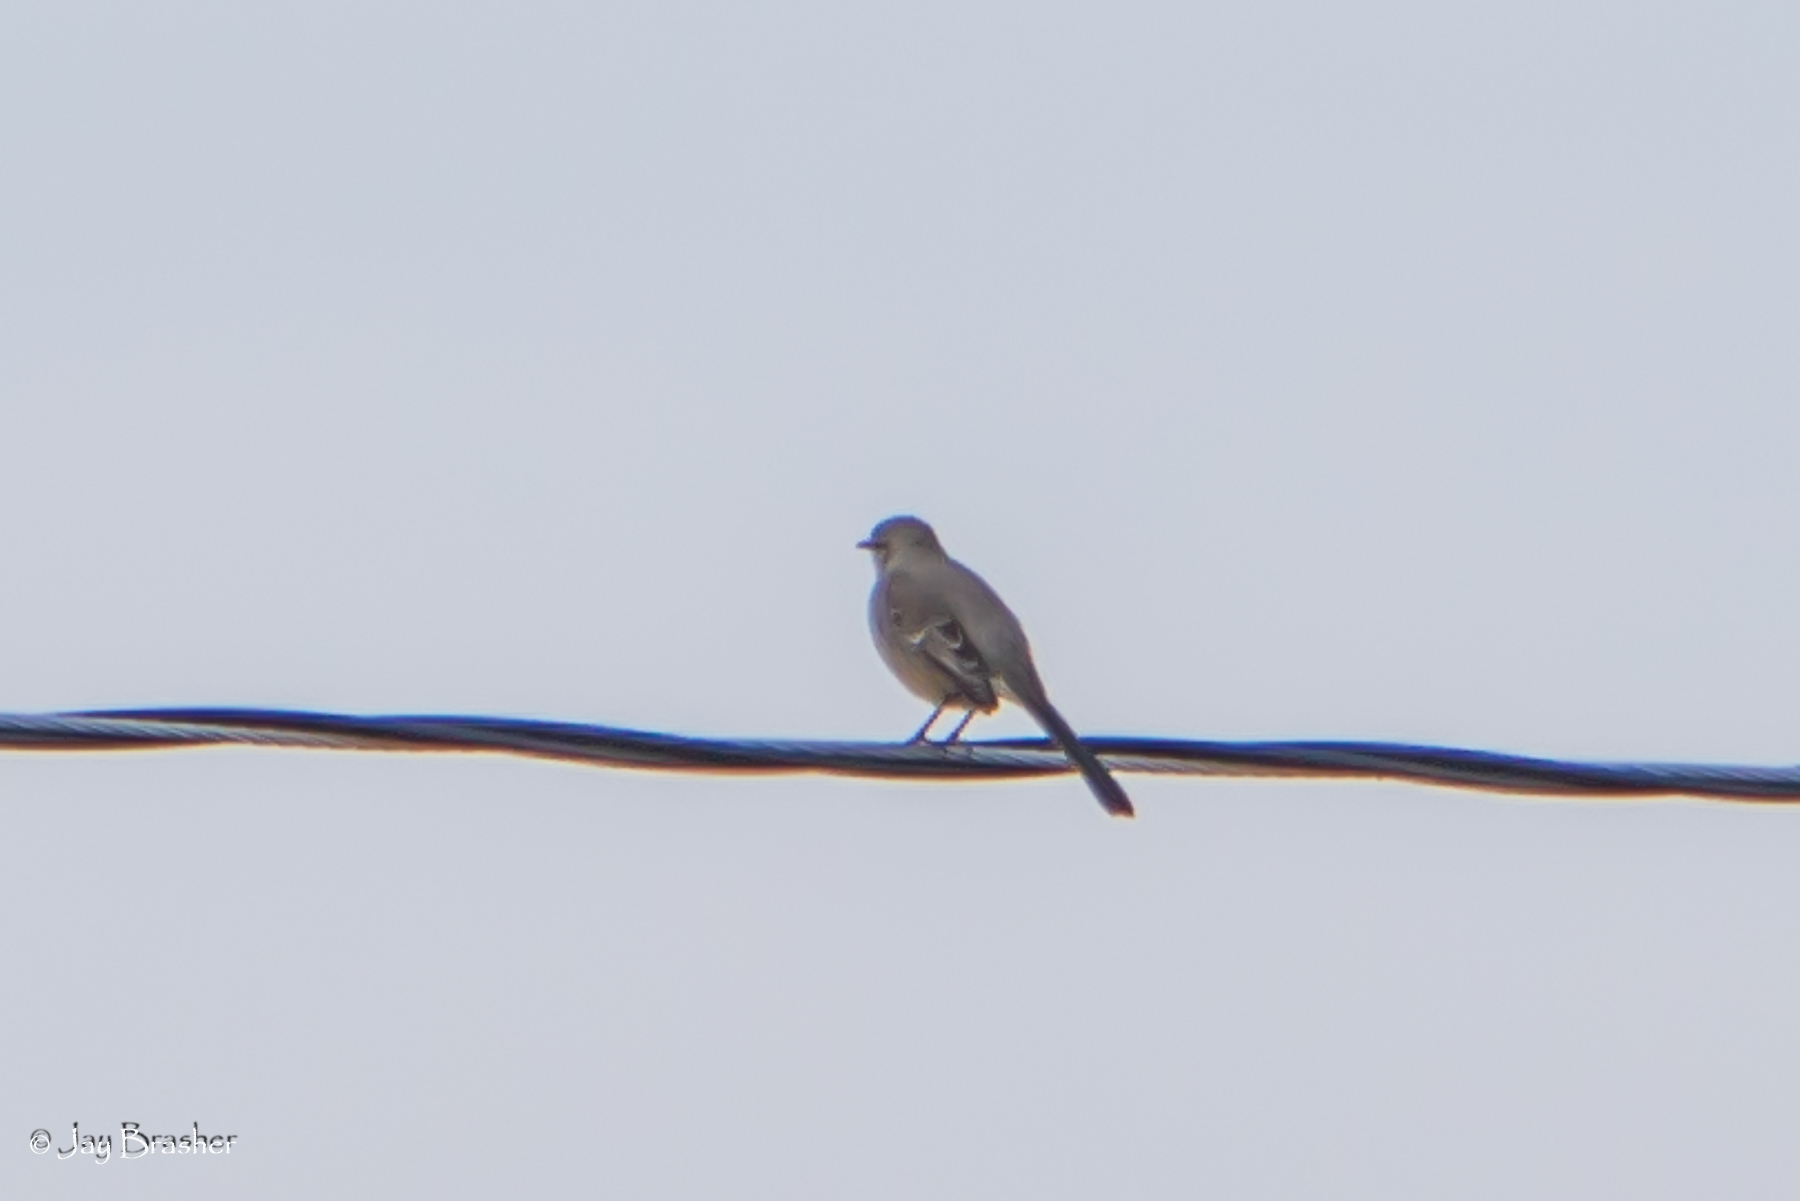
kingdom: Animalia
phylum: Chordata
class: Aves
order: Passeriformes
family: Mimidae
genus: Mimus
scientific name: Mimus polyglottos
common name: Northern mockingbird
